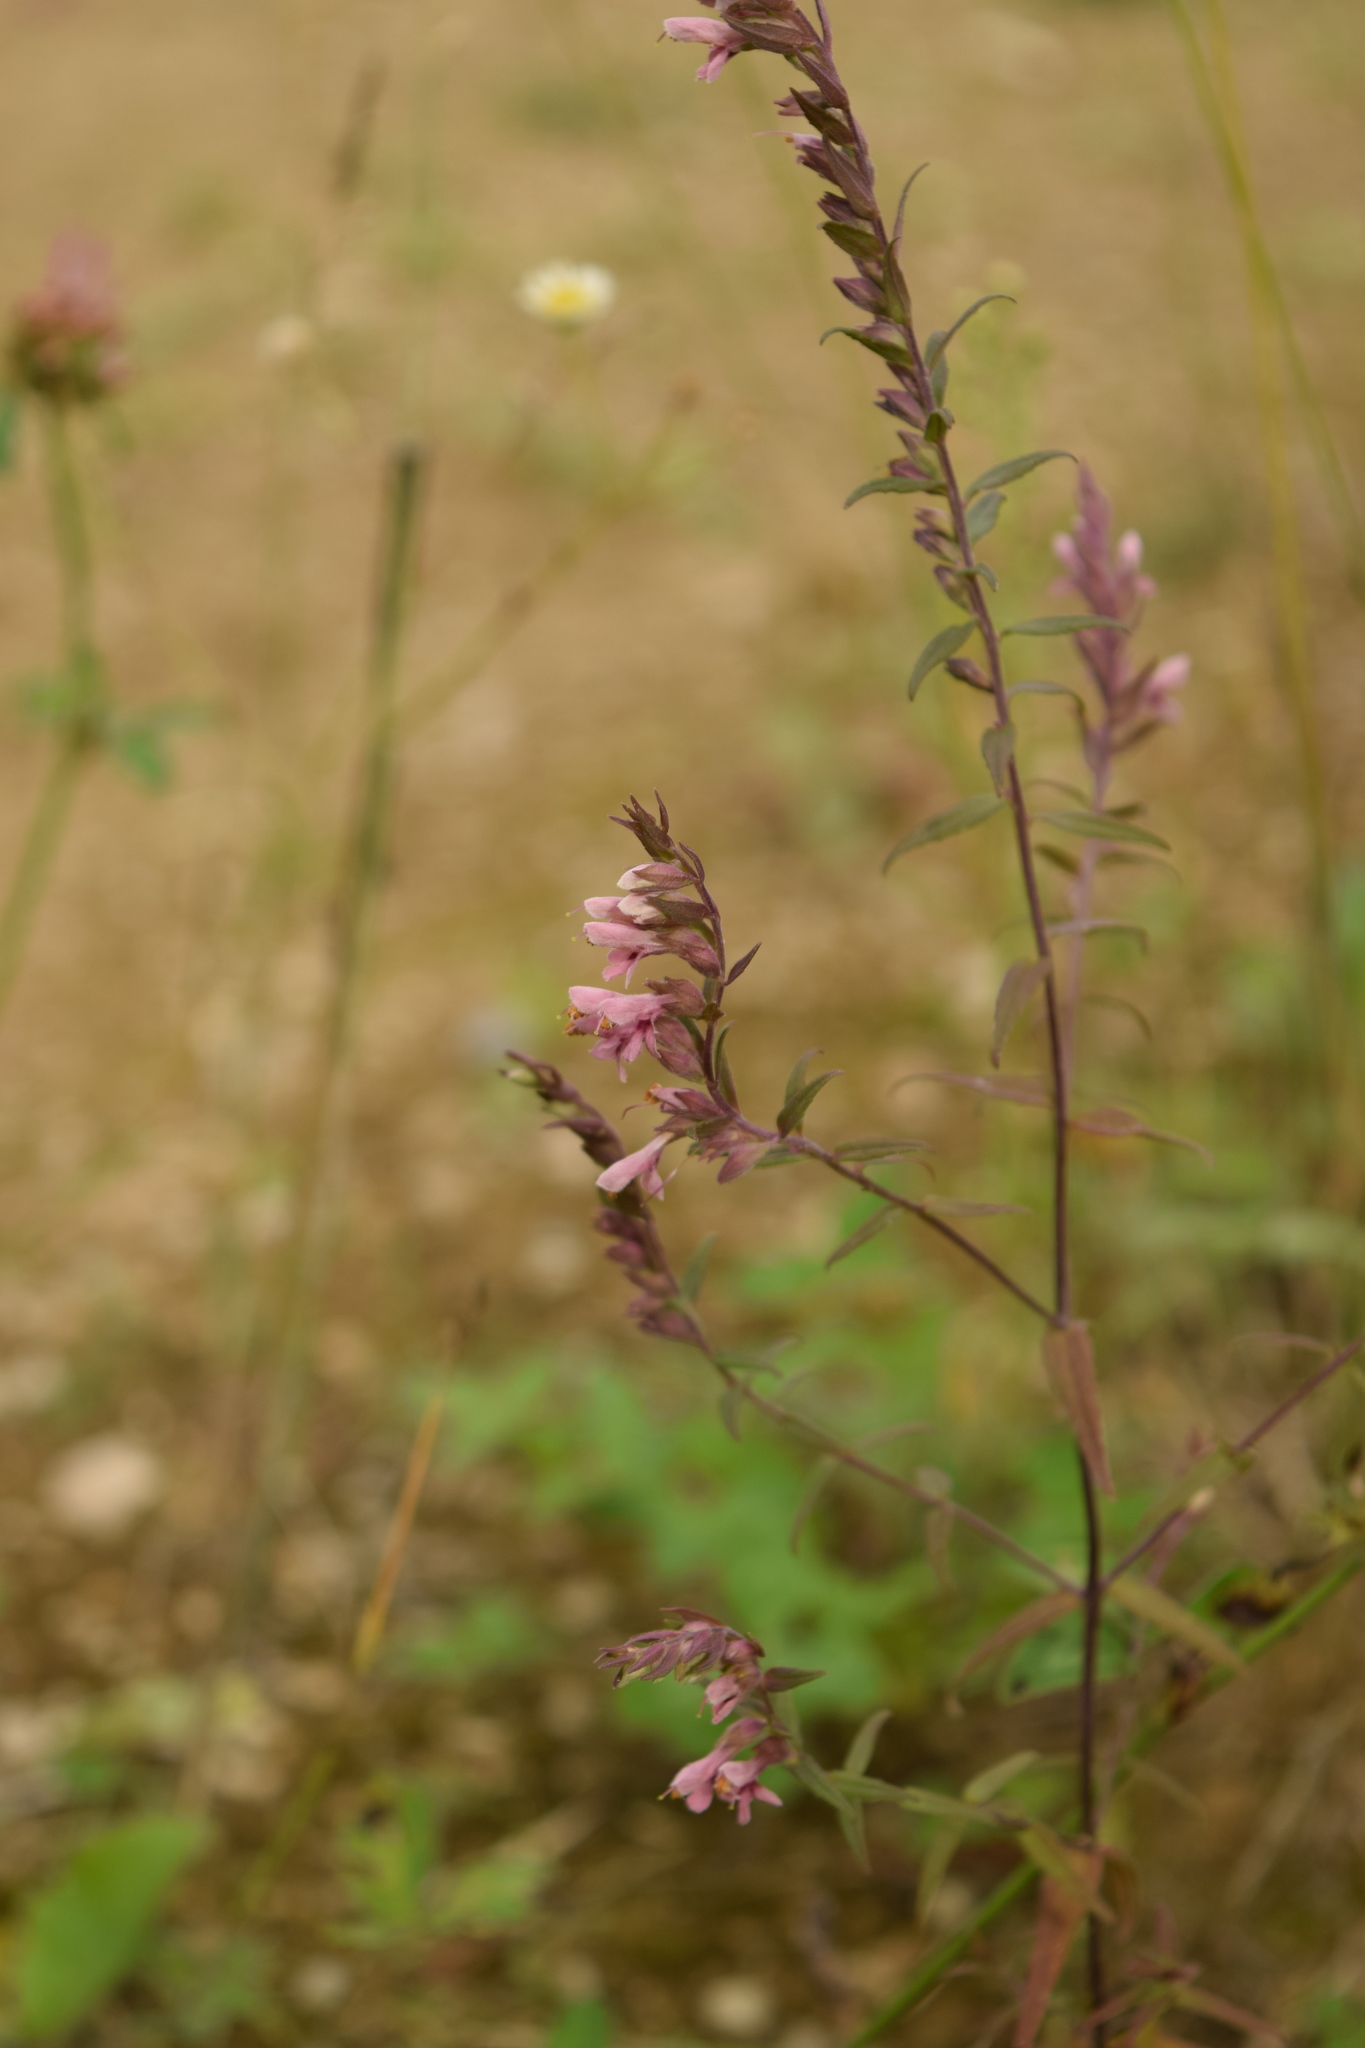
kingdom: Plantae
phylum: Tracheophyta
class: Magnoliopsida
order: Lamiales
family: Orobanchaceae
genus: Odontites
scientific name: Odontites vulgaris
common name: Broomrape
